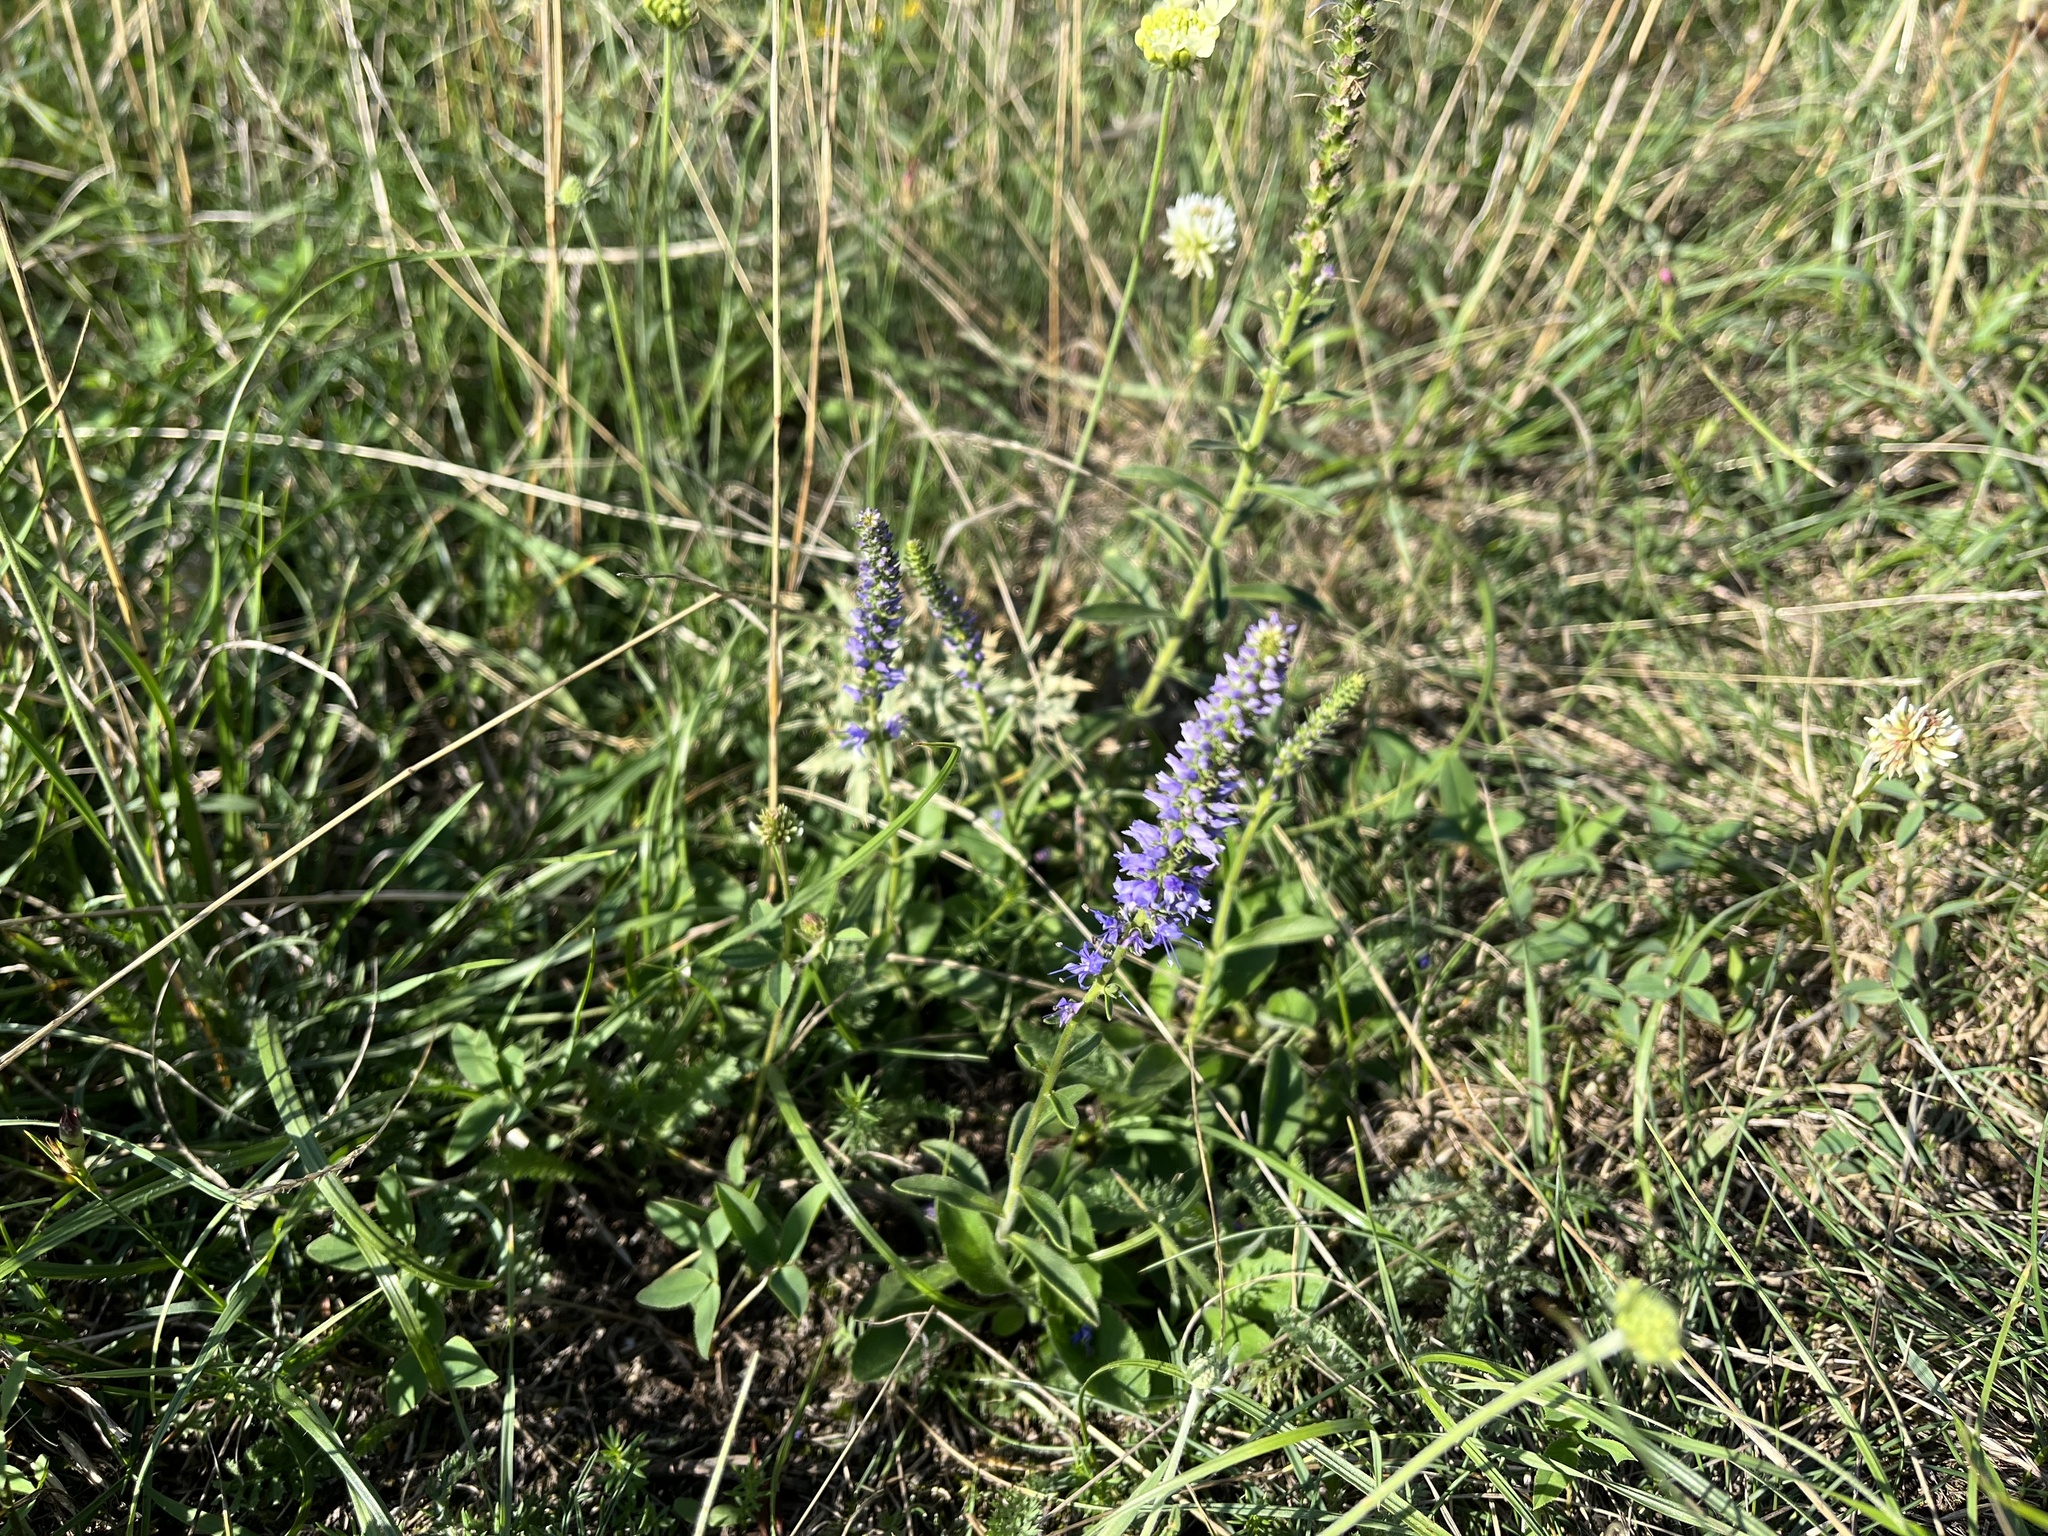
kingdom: Plantae
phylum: Tracheophyta
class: Magnoliopsida
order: Lamiales
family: Plantaginaceae
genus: Veronica
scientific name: Veronica spicata
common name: Spiked speedwell
